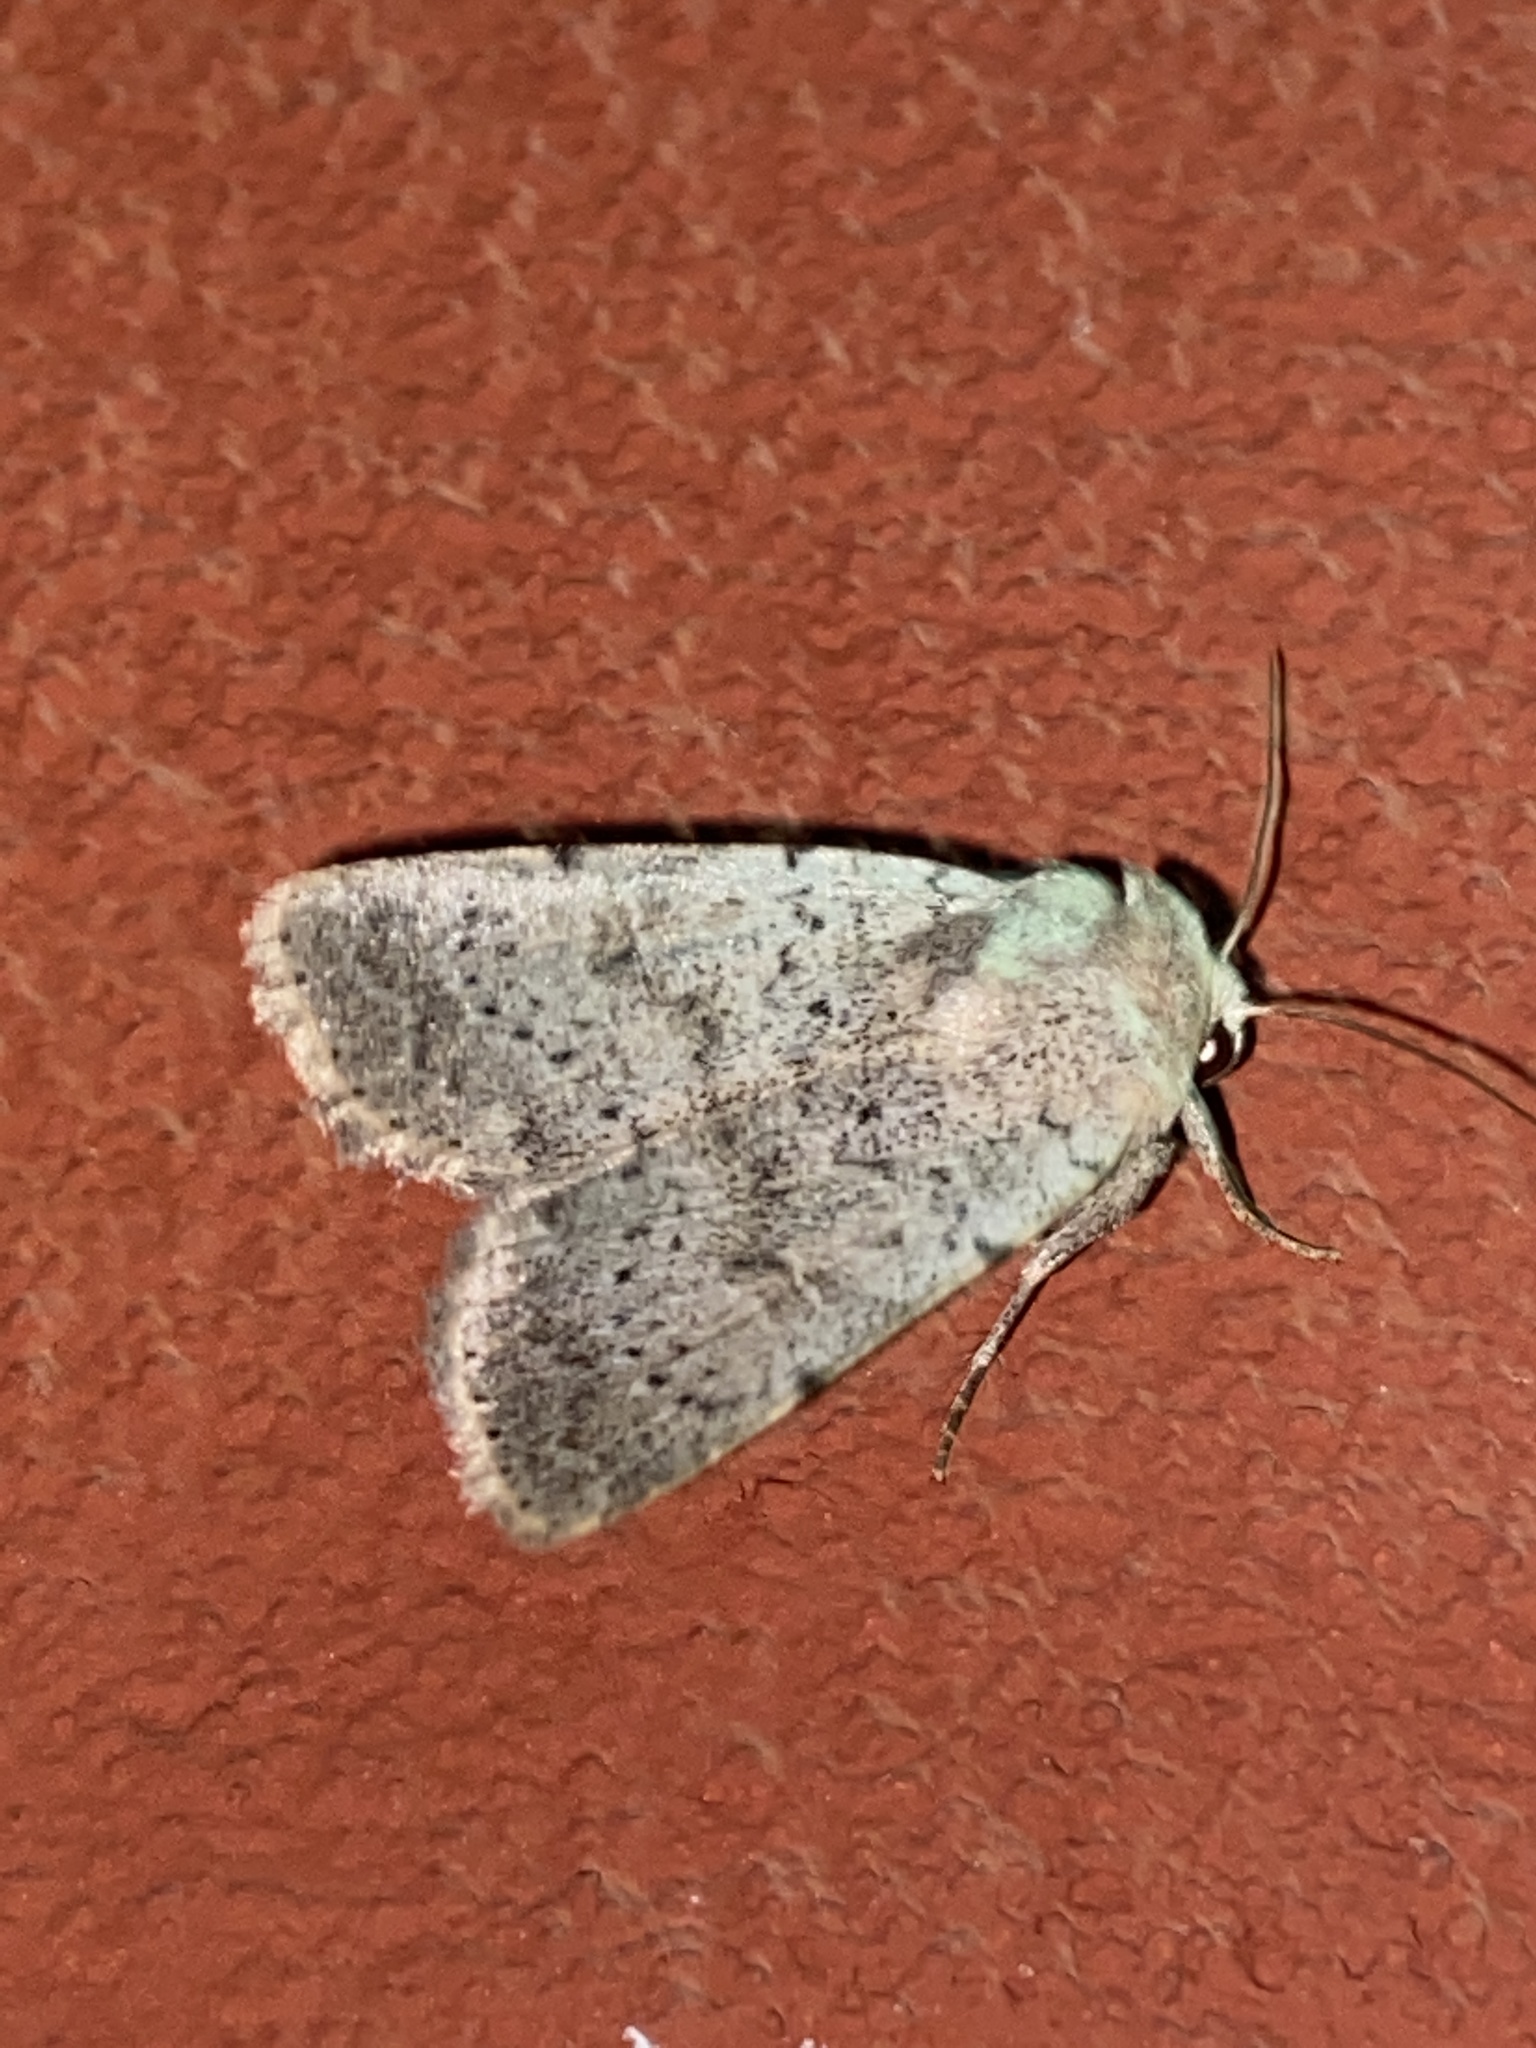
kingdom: Animalia
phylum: Arthropoda
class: Insecta
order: Lepidoptera
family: Noctuidae
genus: Hoplodrina
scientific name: Hoplodrina respersa
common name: Sprinkled rustic
